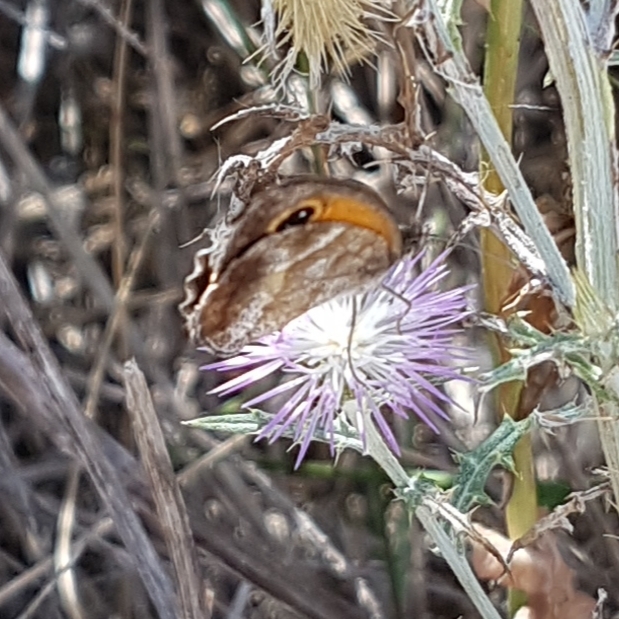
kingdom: Animalia
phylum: Arthropoda
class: Insecta
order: Lepidoptera
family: Nymphalidae
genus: Pyronia
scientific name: Pyronia cecilia
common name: Southern gatekeeper
